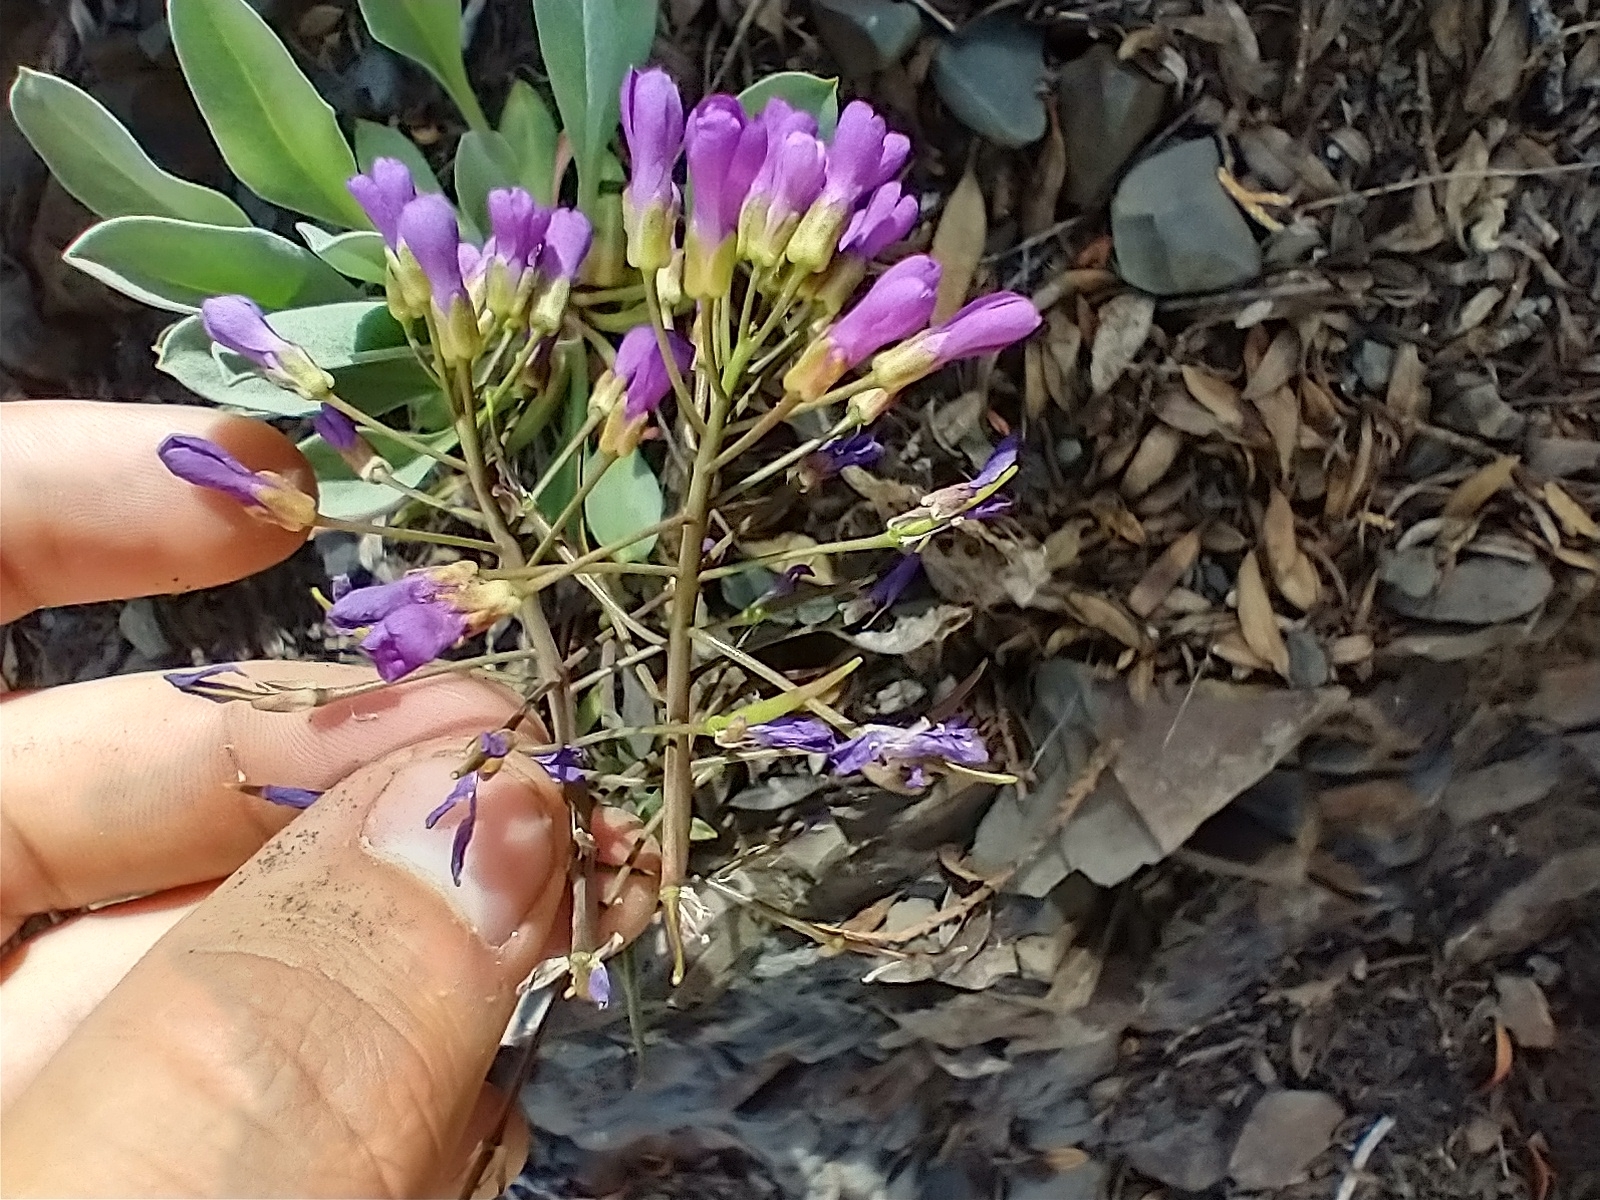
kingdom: Plantae
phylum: Tracheophyta
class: Magnoliopsida
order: Brassicales
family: Brassicaceae
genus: Phoenicaulis
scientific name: Phoenicaulis cheiranthoides
